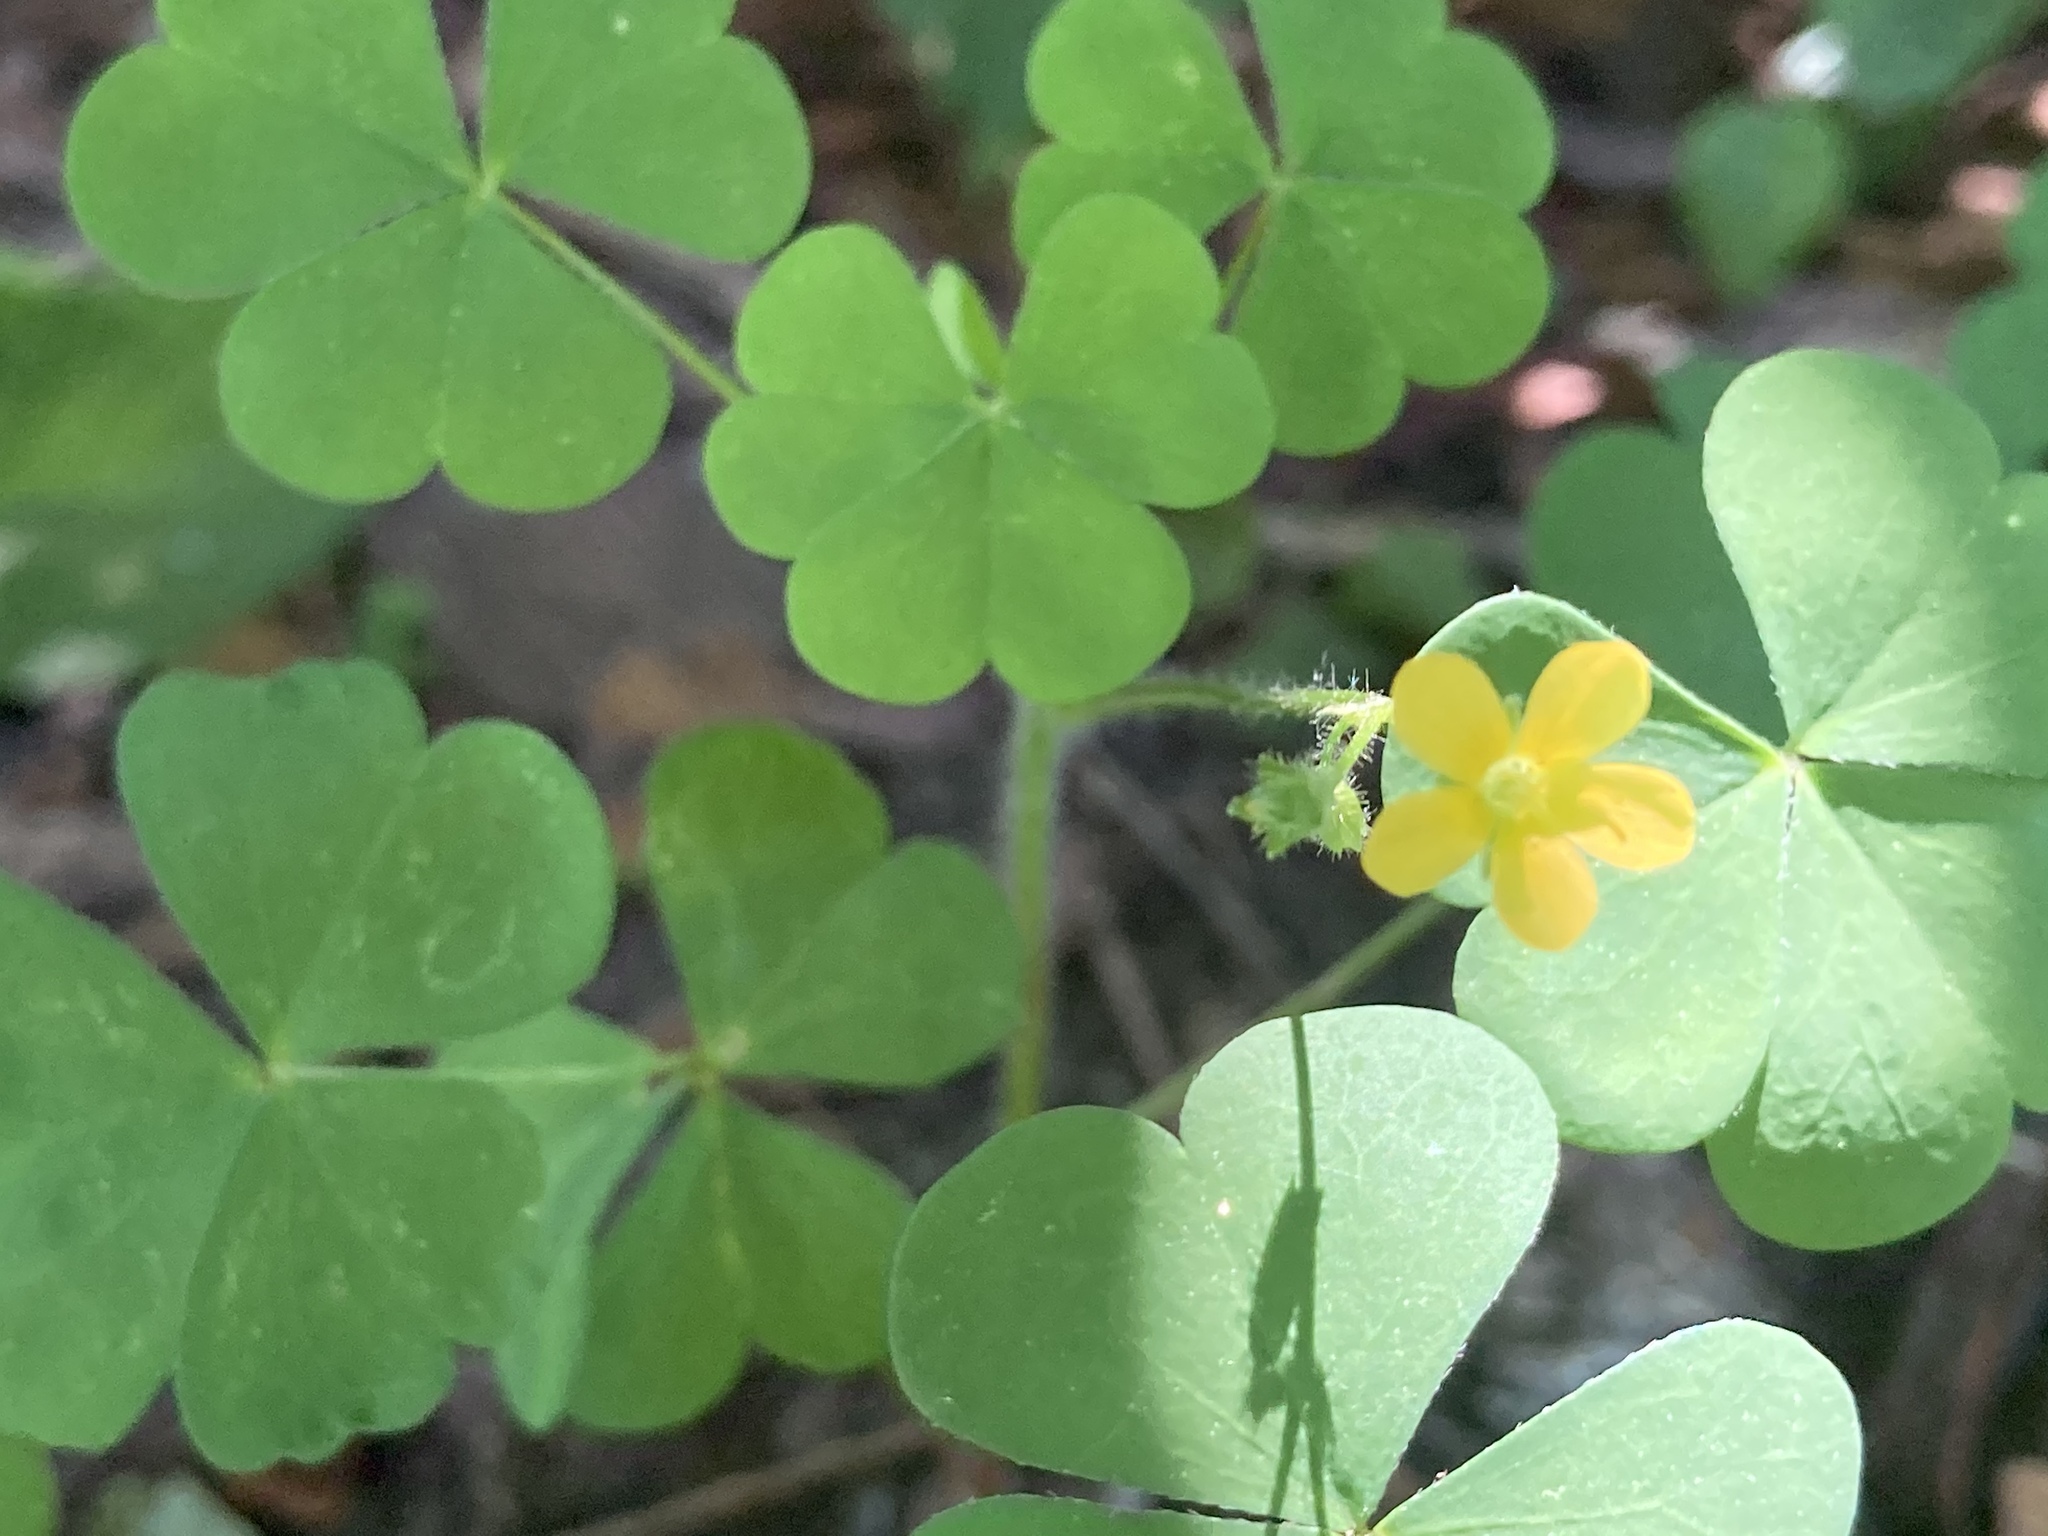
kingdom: Plantae
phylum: Tracheophyta
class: Magnoliopsida
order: Oxalidales
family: Oxalidaceae
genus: Oxalis
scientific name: Oxalis stricta
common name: Upright yellow-sorrel
